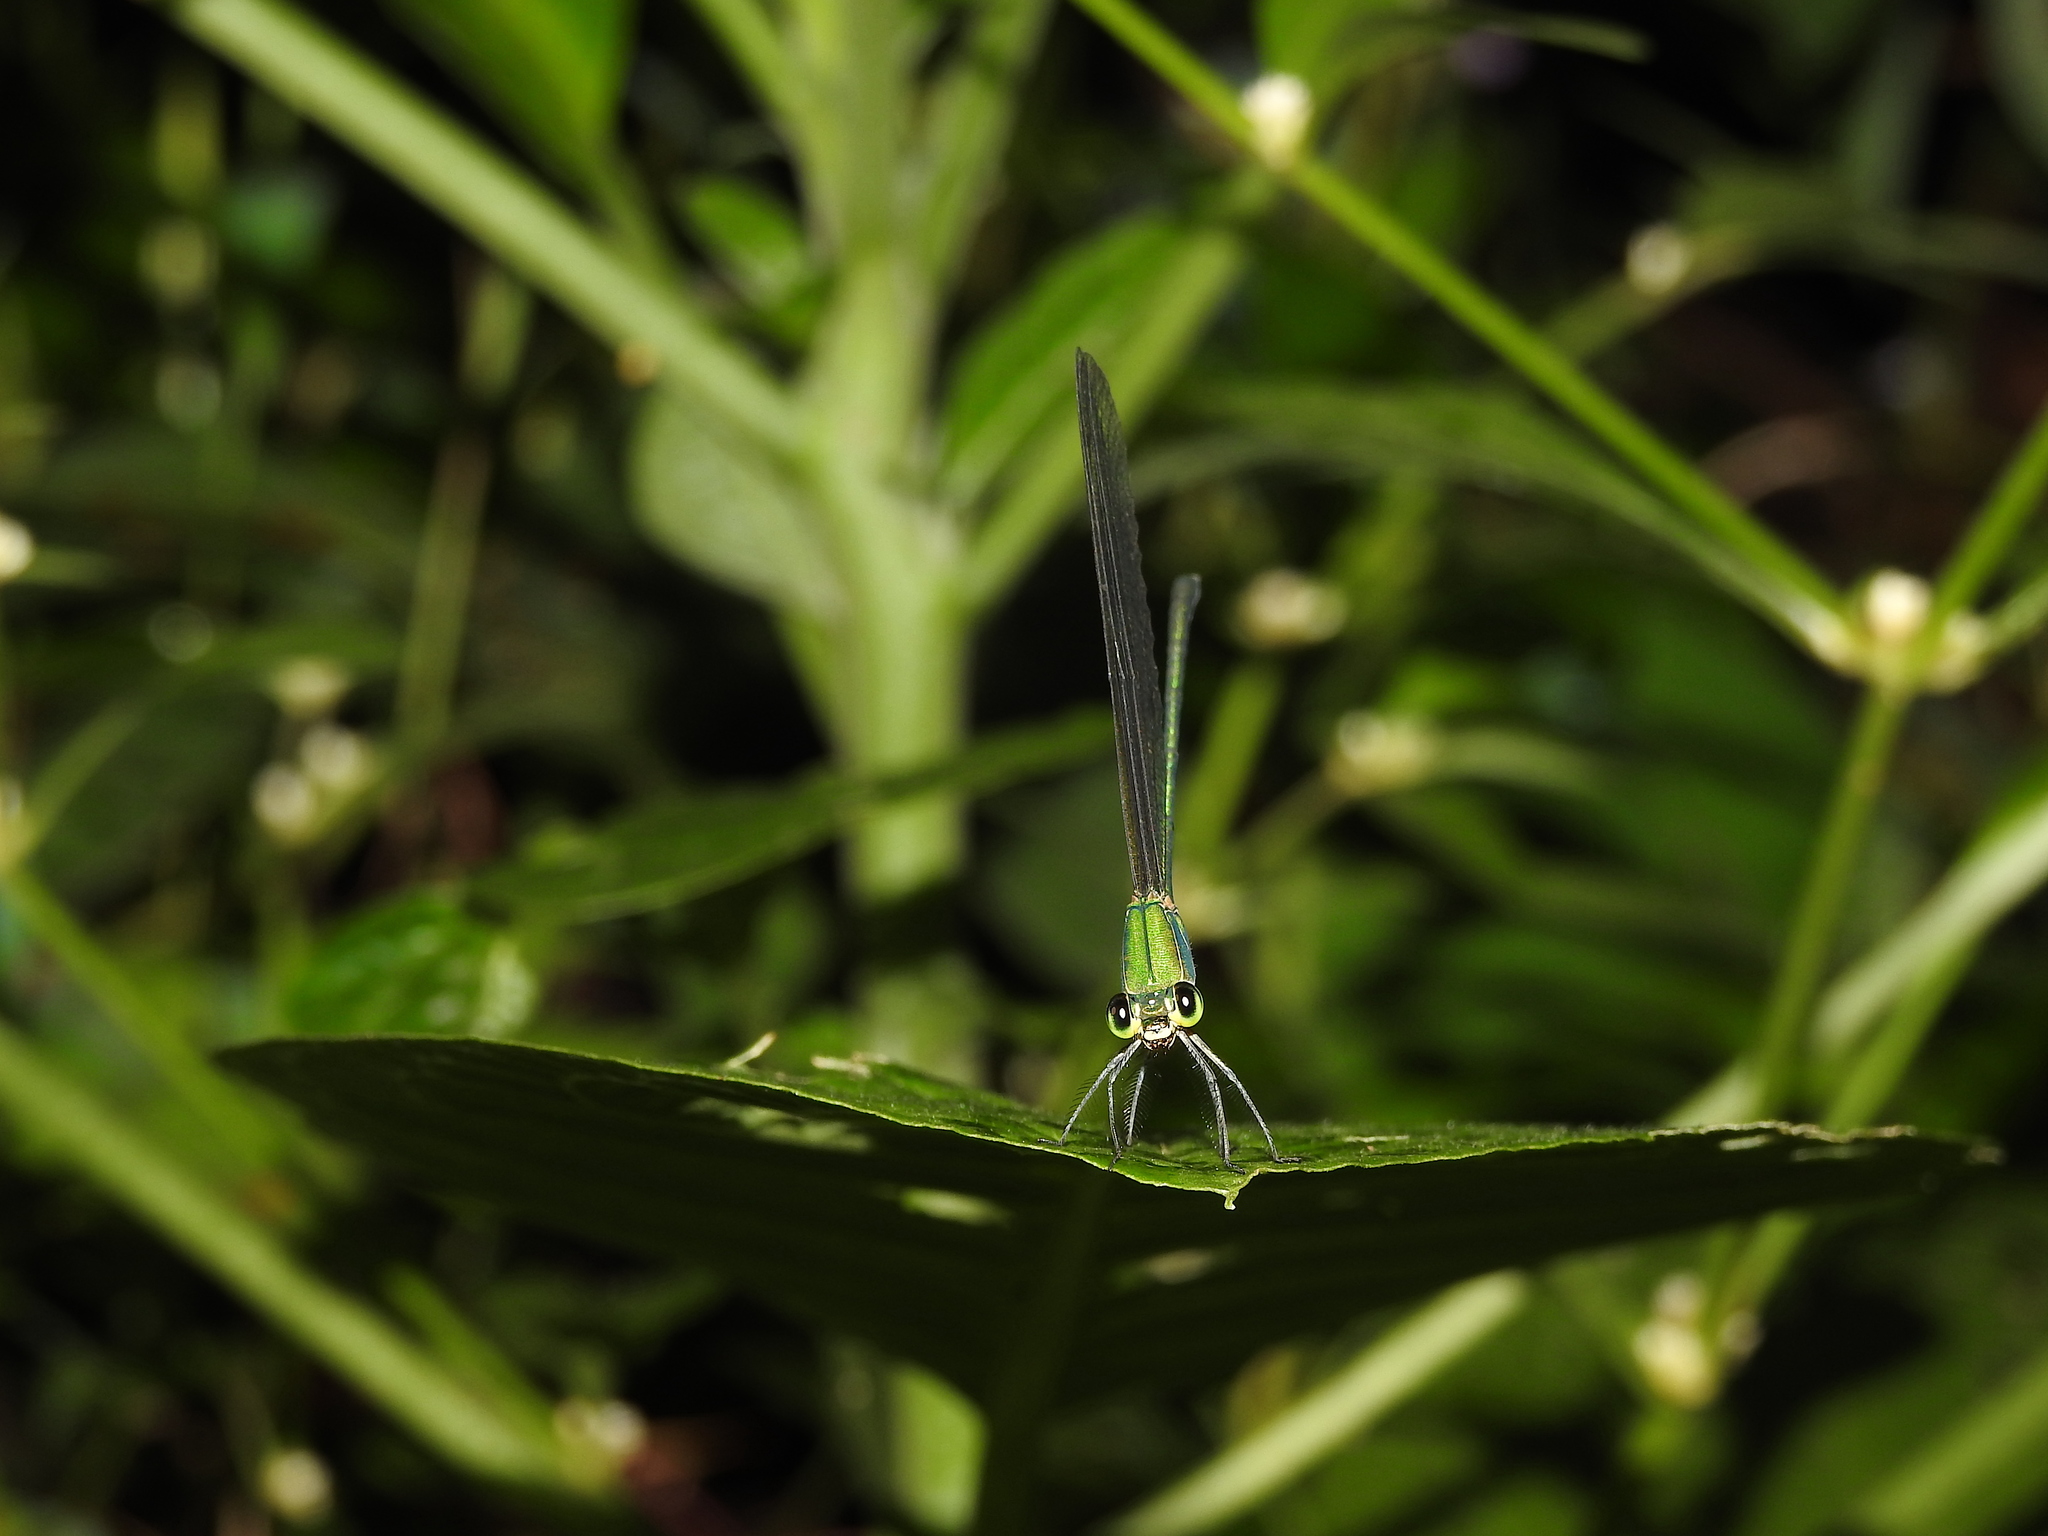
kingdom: Animalia
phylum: Arthropoda
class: Insecta
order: Odonata
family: Calopterygidae
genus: Vestalis
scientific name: Vestalis gracilis
